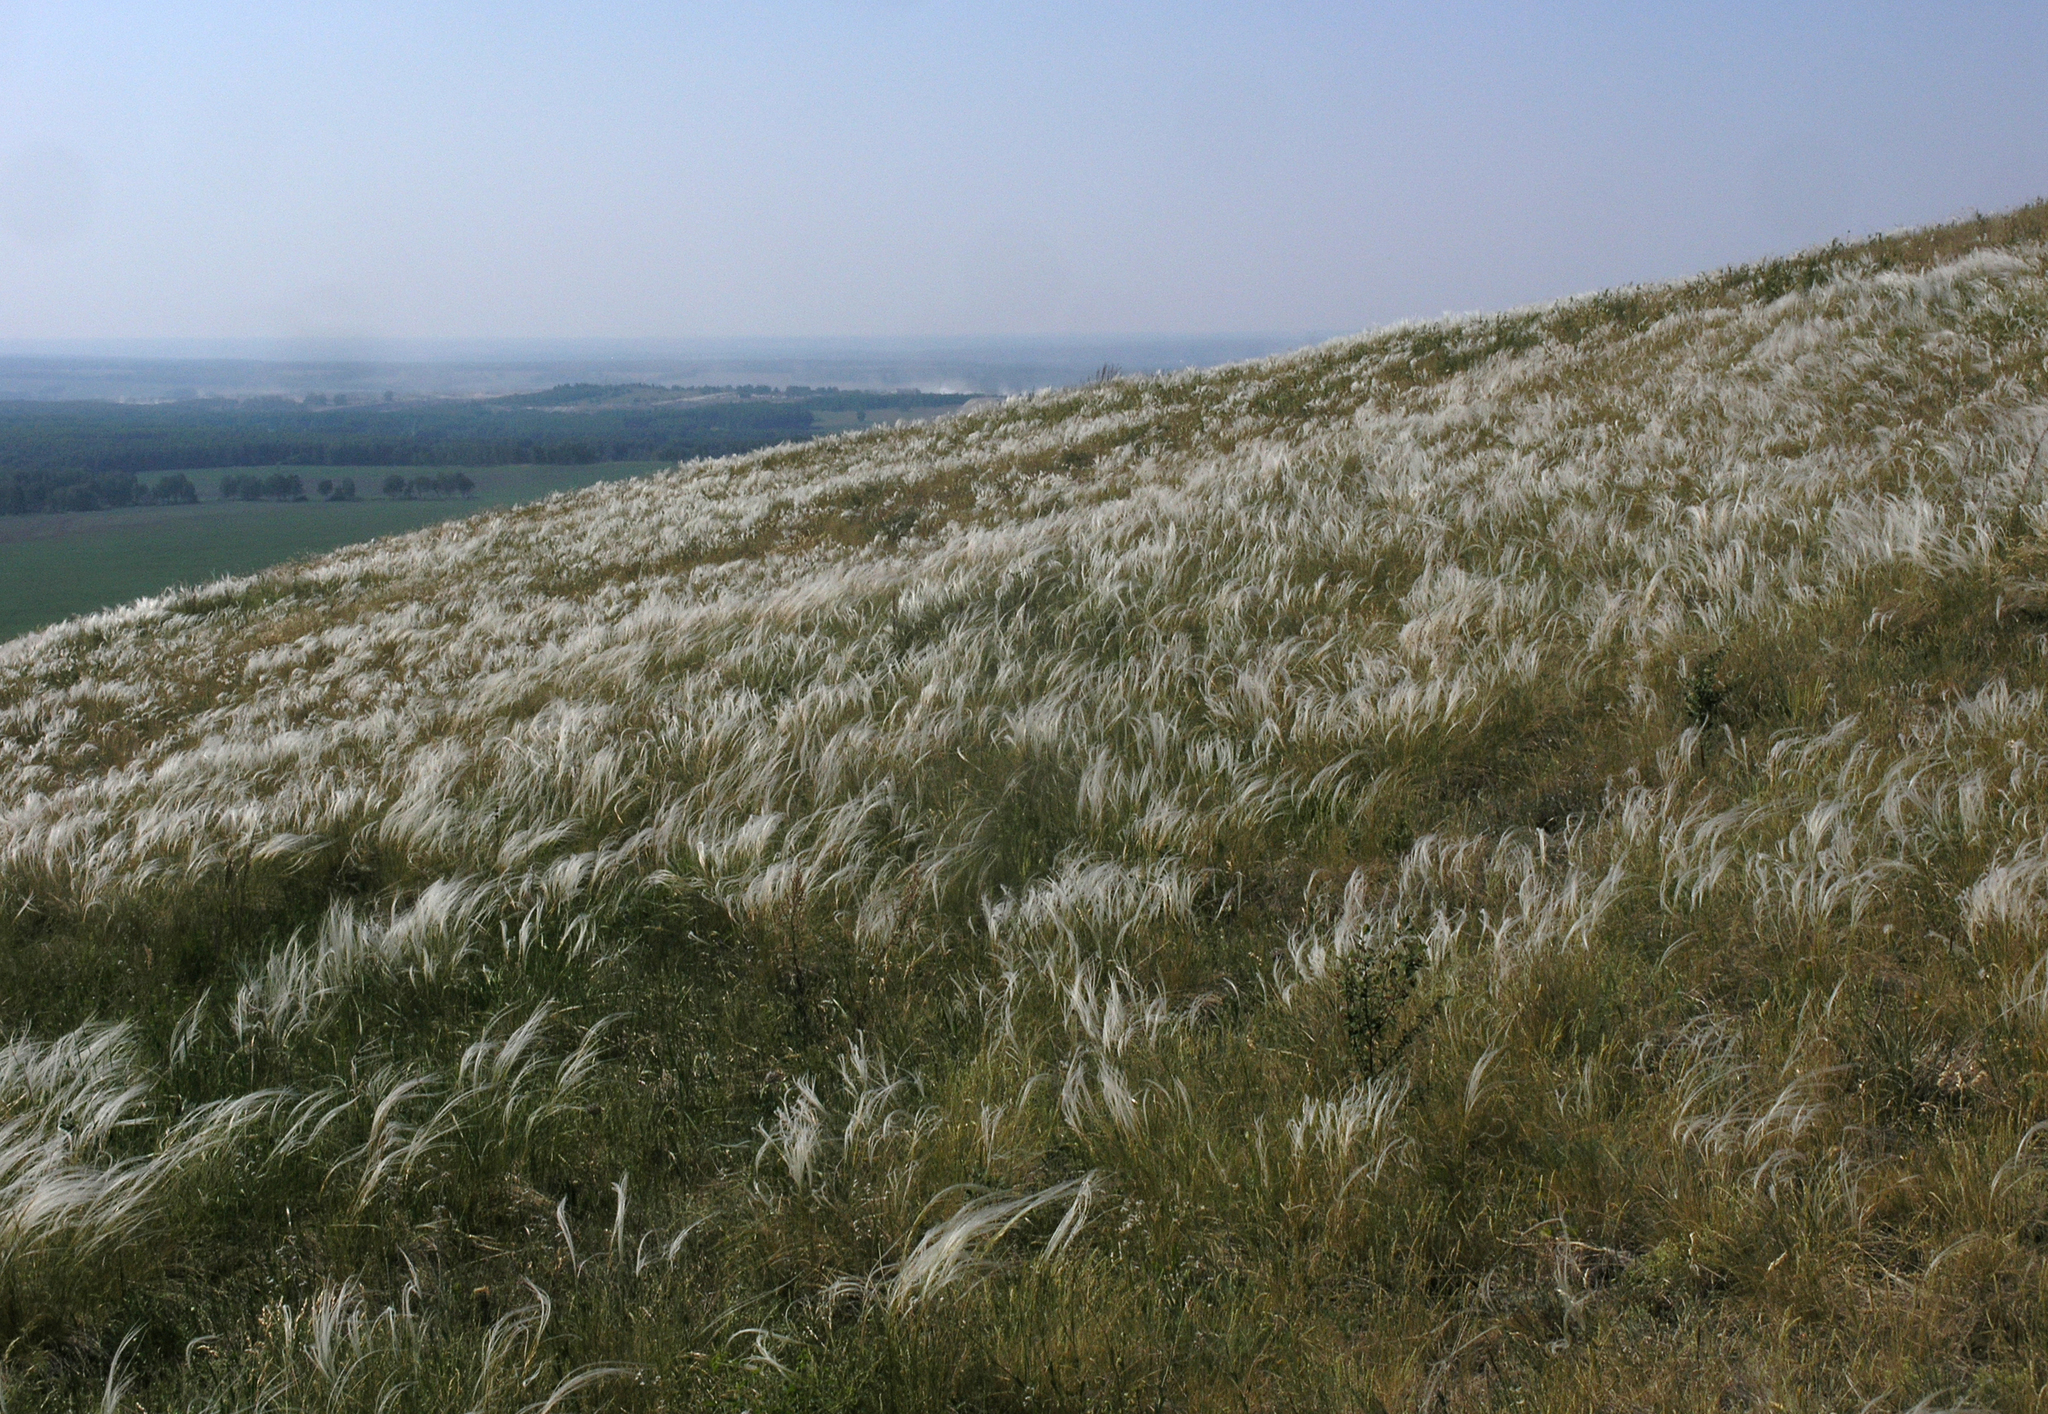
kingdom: Plantae
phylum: Tracheophyta
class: Liliopsida
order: Poales
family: Poaceae
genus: Stipa
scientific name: Stipa pennata
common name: European feather grass
